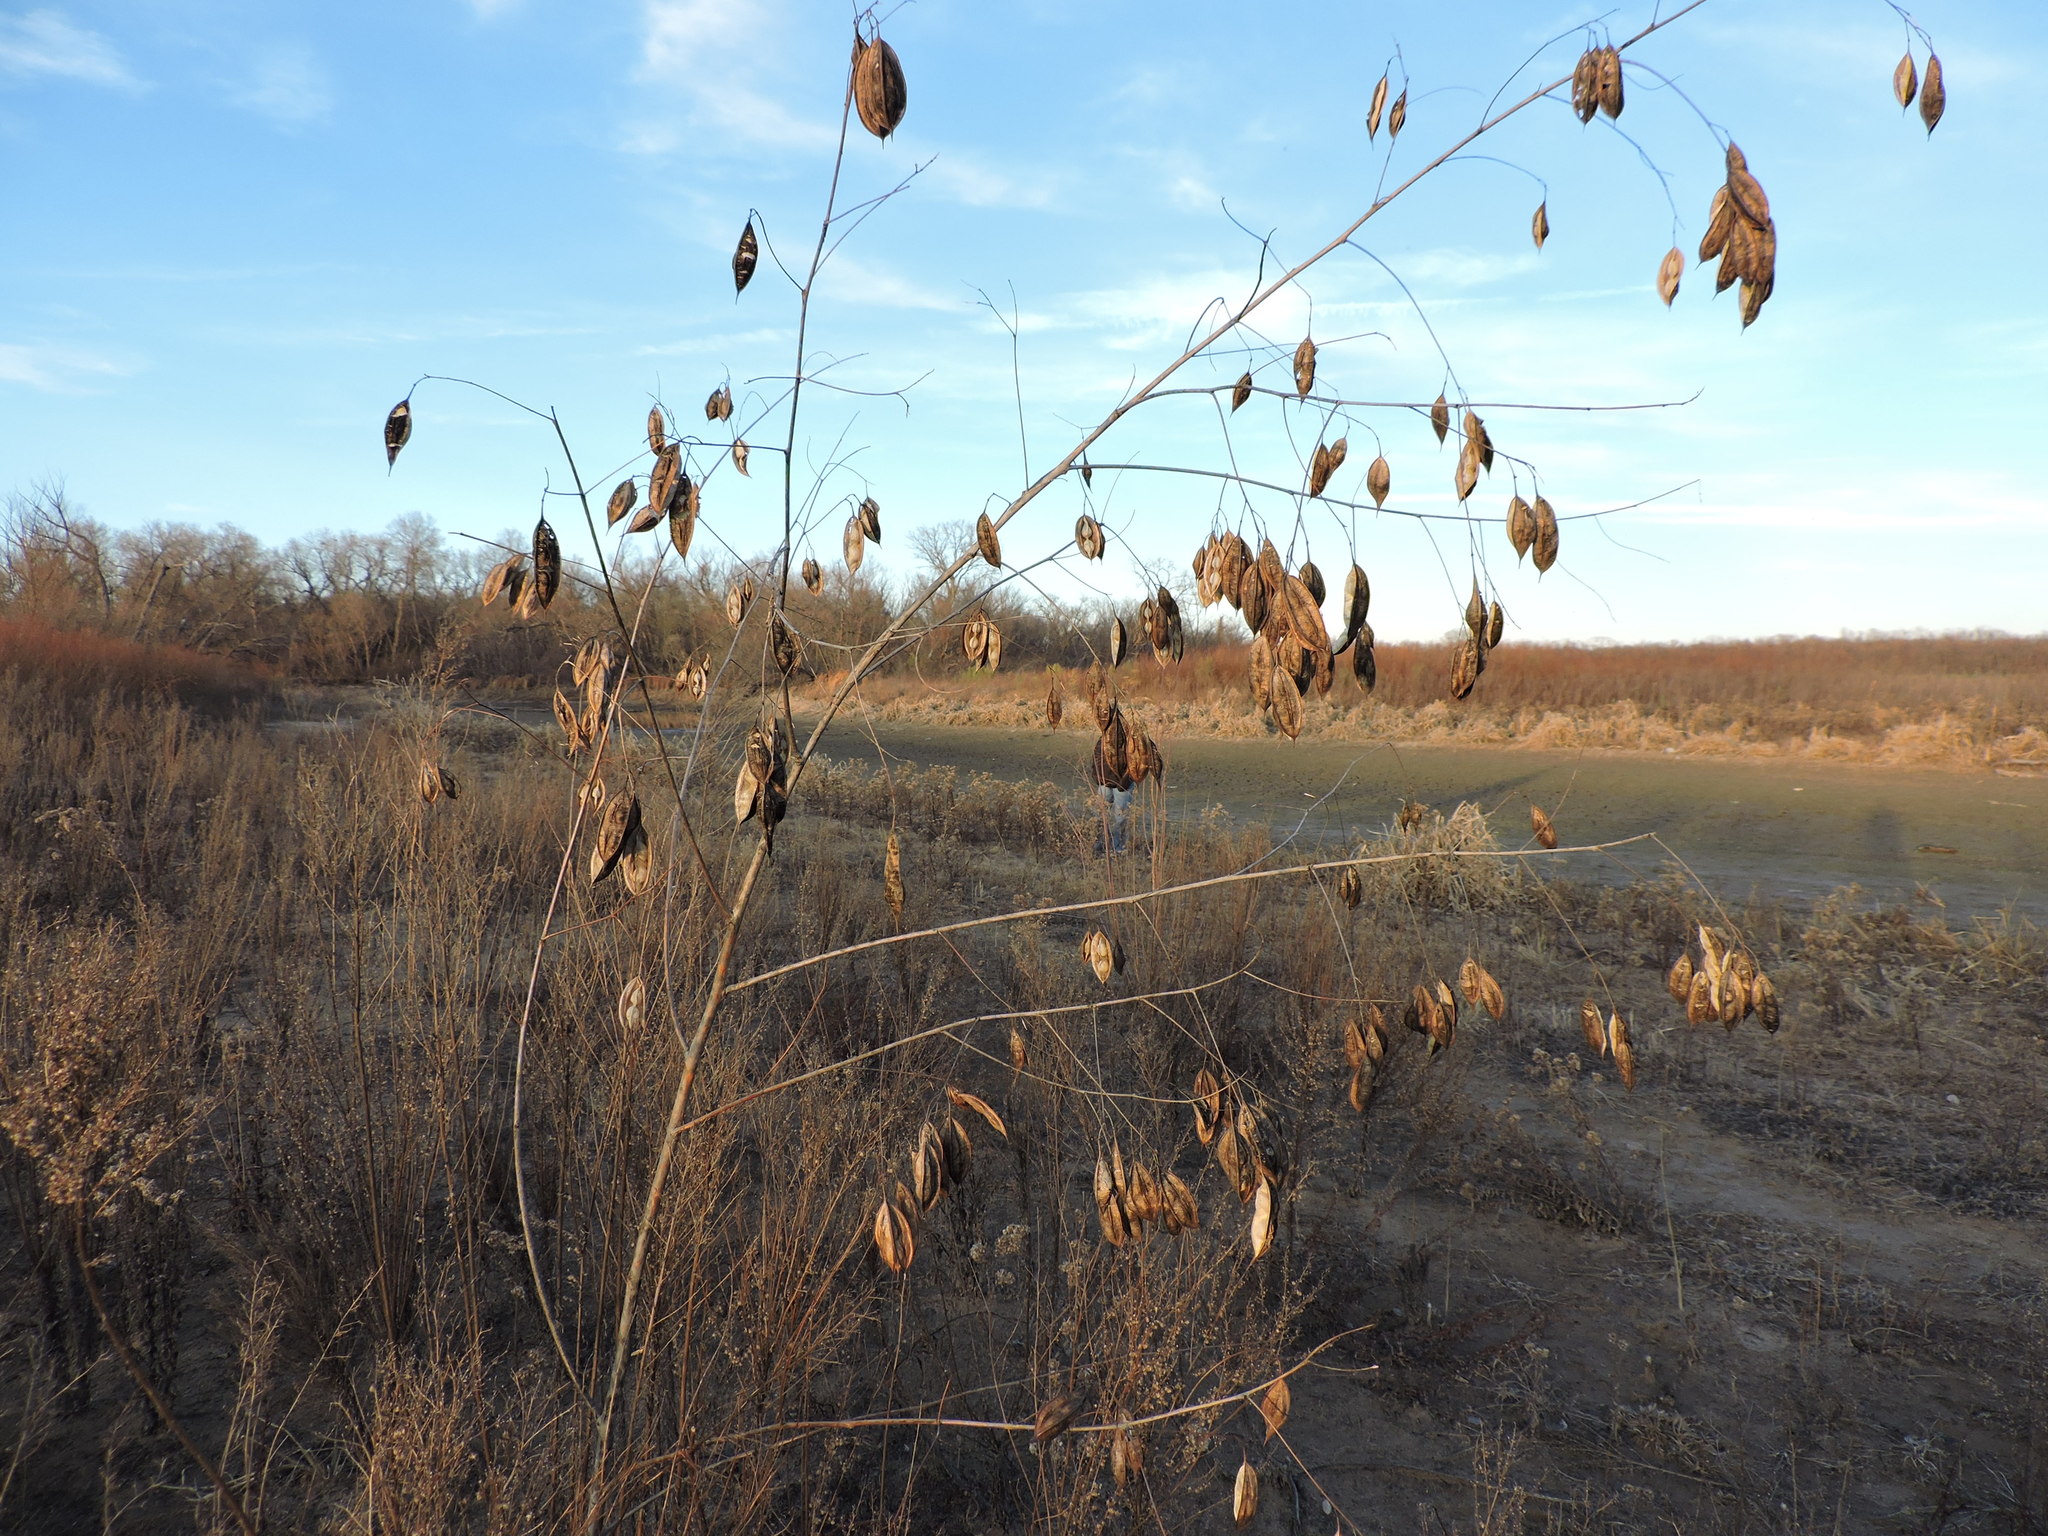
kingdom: Plantae
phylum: Tracheophyta
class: Magnoliopsida
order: Fabales
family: Fabaceae
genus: Sesbania
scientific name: Sesbania vesicaria
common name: Bagpod
